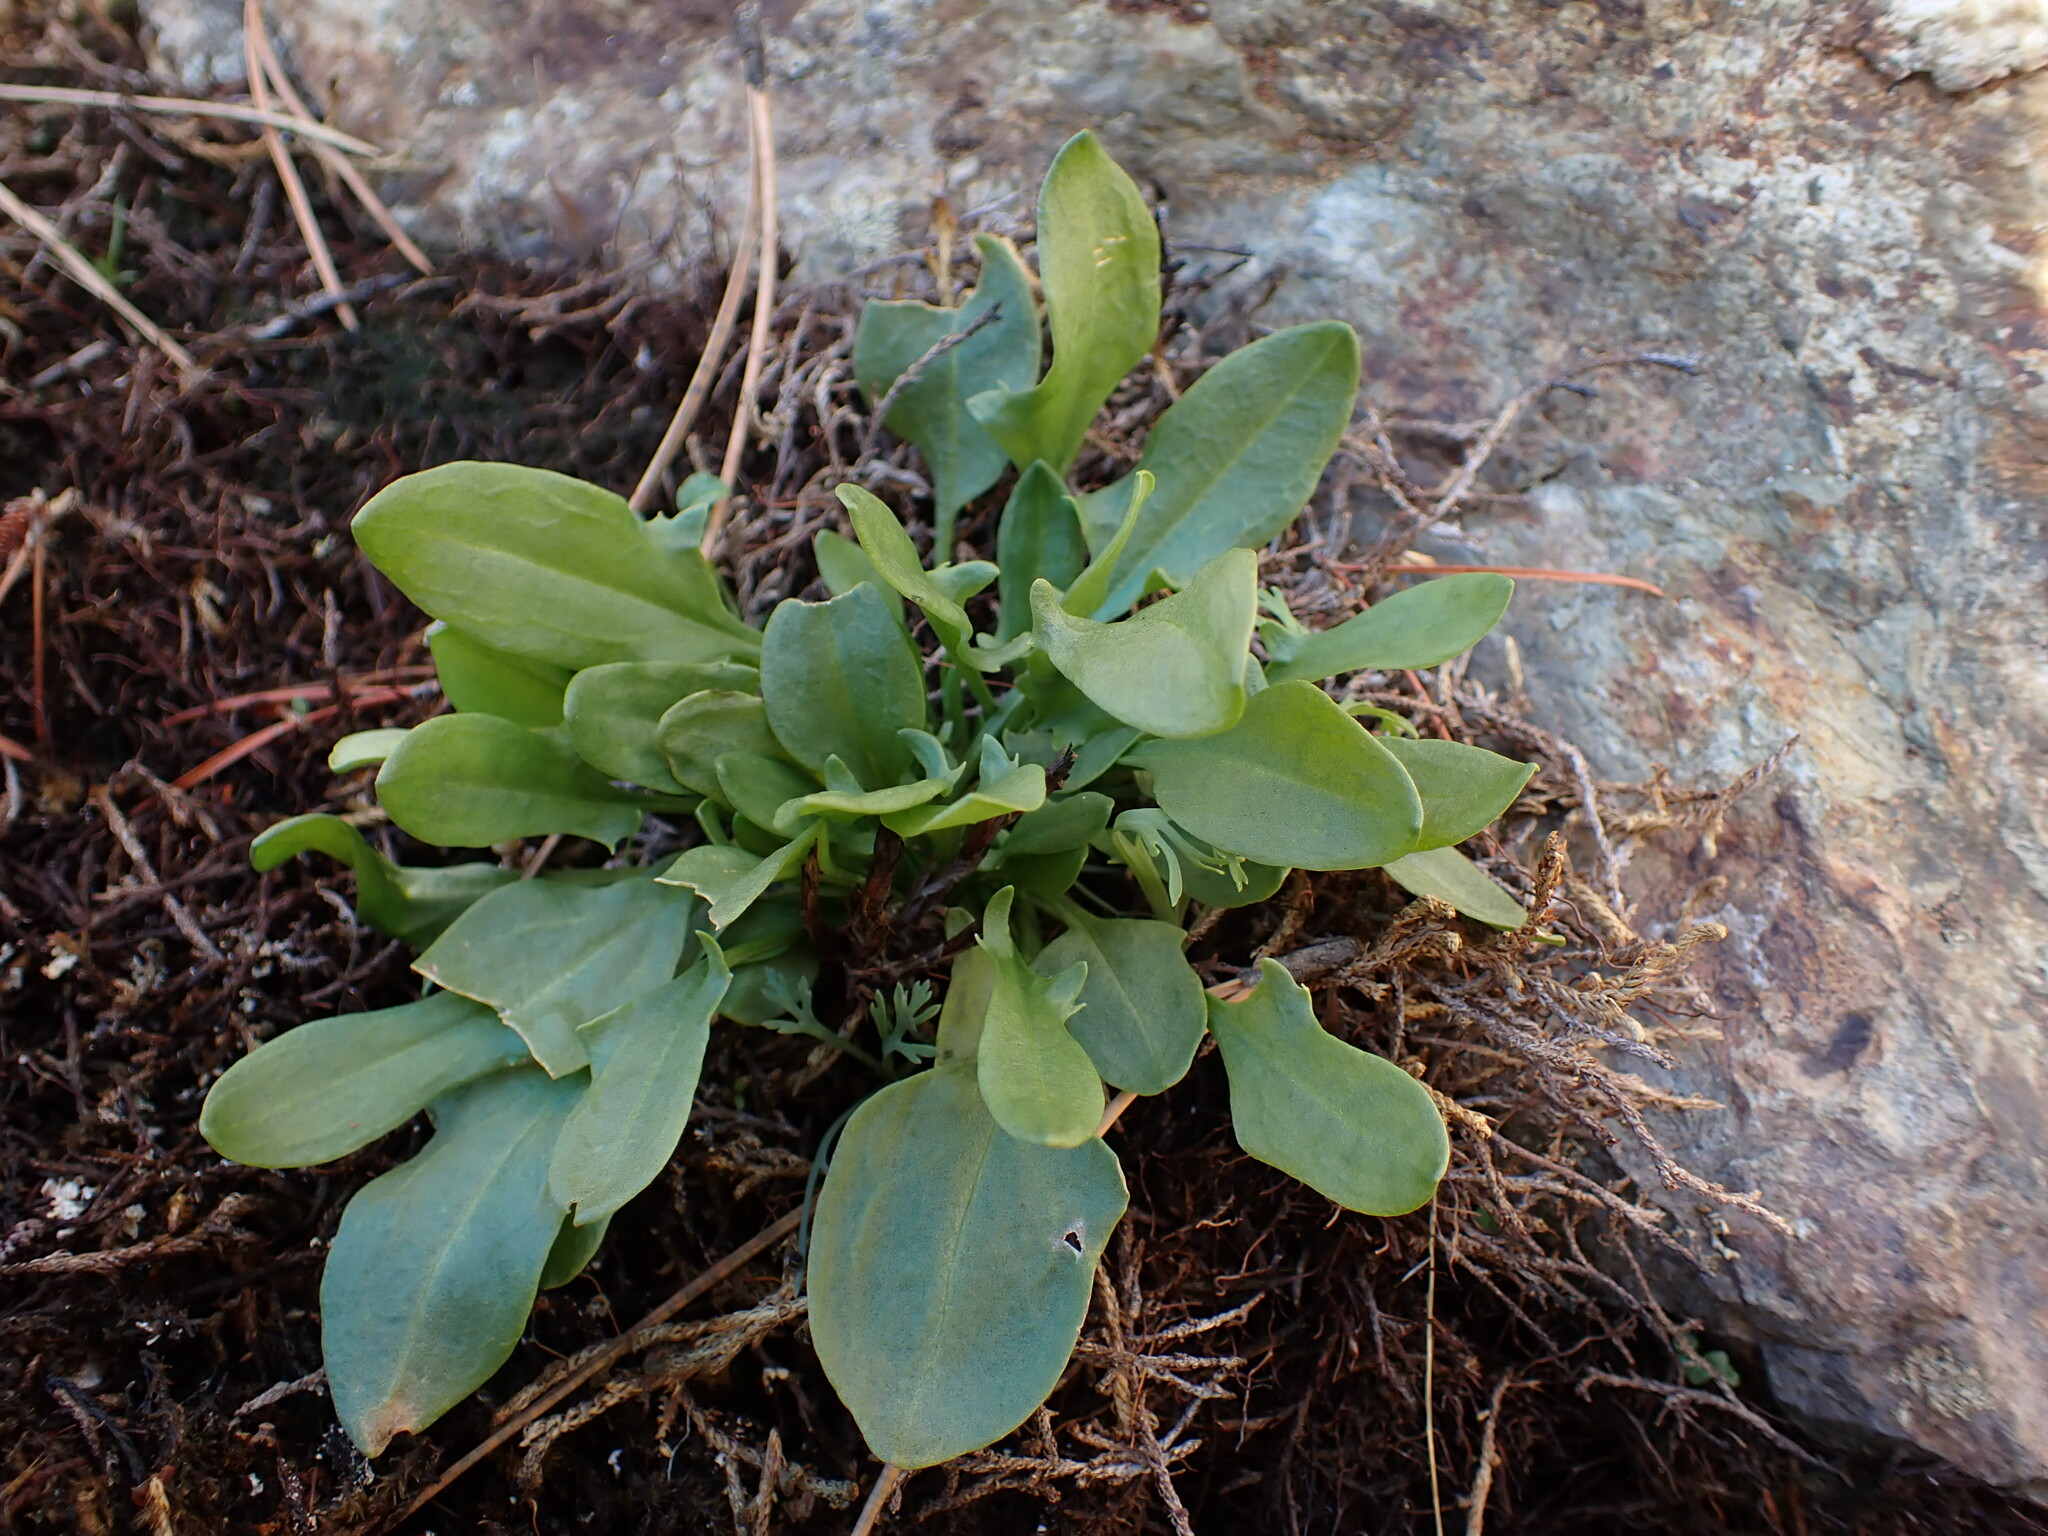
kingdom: Plantae
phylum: Tracheophyta
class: Magnoliopsida
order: Caryophyllales
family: Polygonaceae
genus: Rumex
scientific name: Rumex acetosella
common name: Common sheep sorrel
